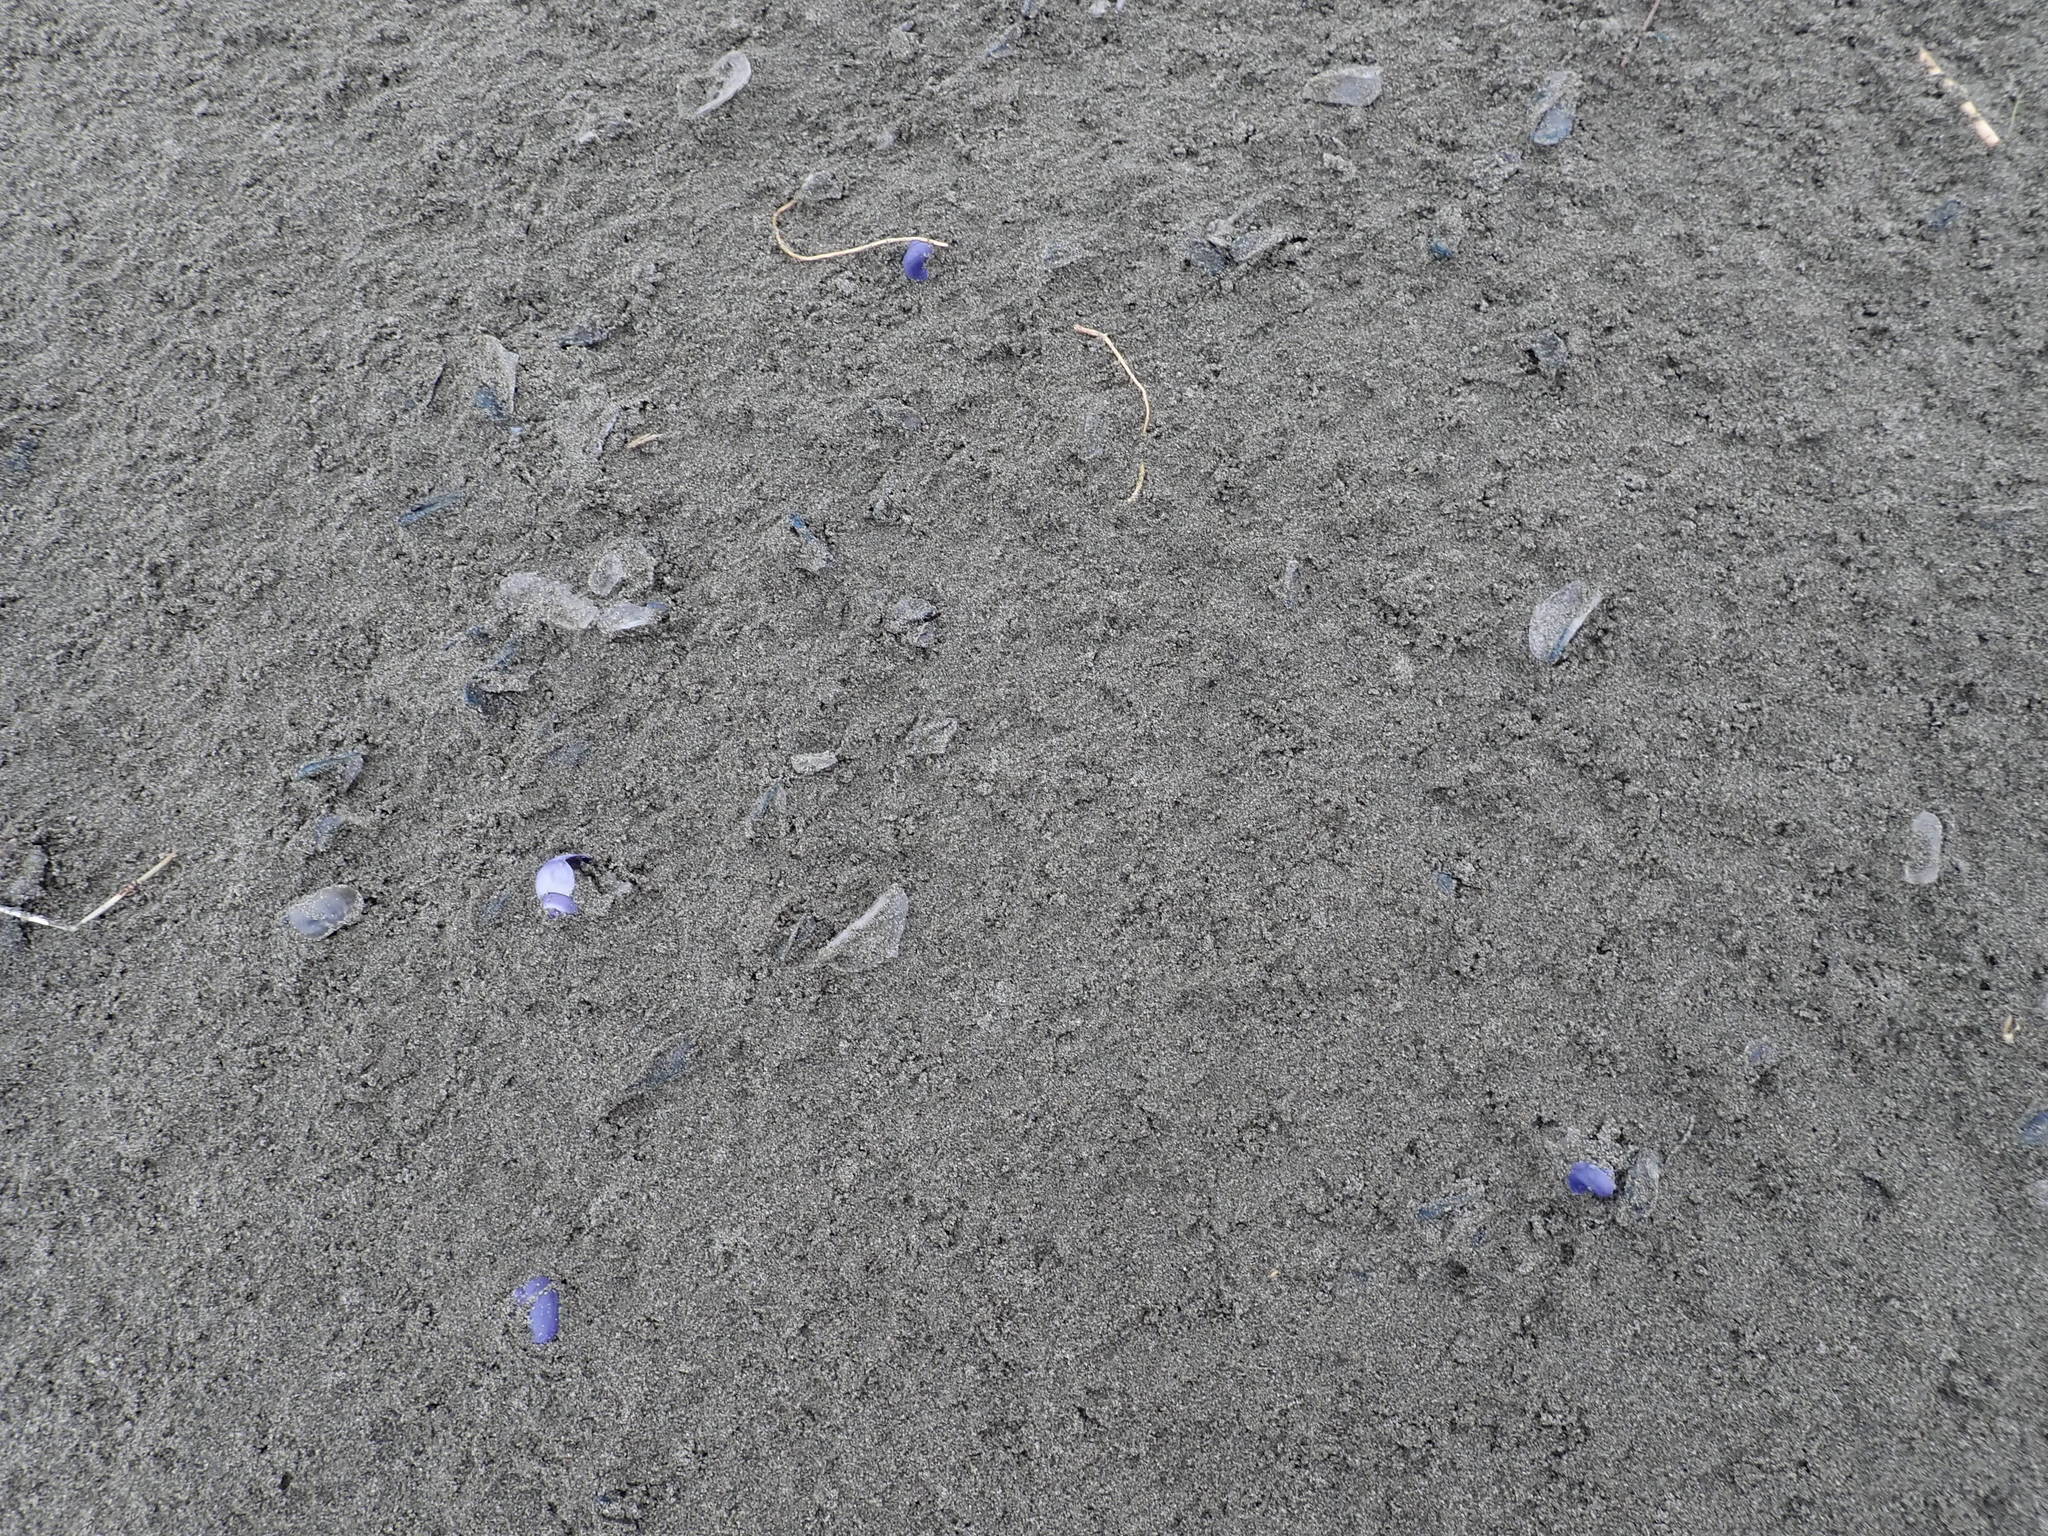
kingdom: Animalia
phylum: Mollusca
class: Gastropoda
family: Epitoniidae
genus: Janthina
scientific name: Janthina exigua
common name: Dwarf janthina
